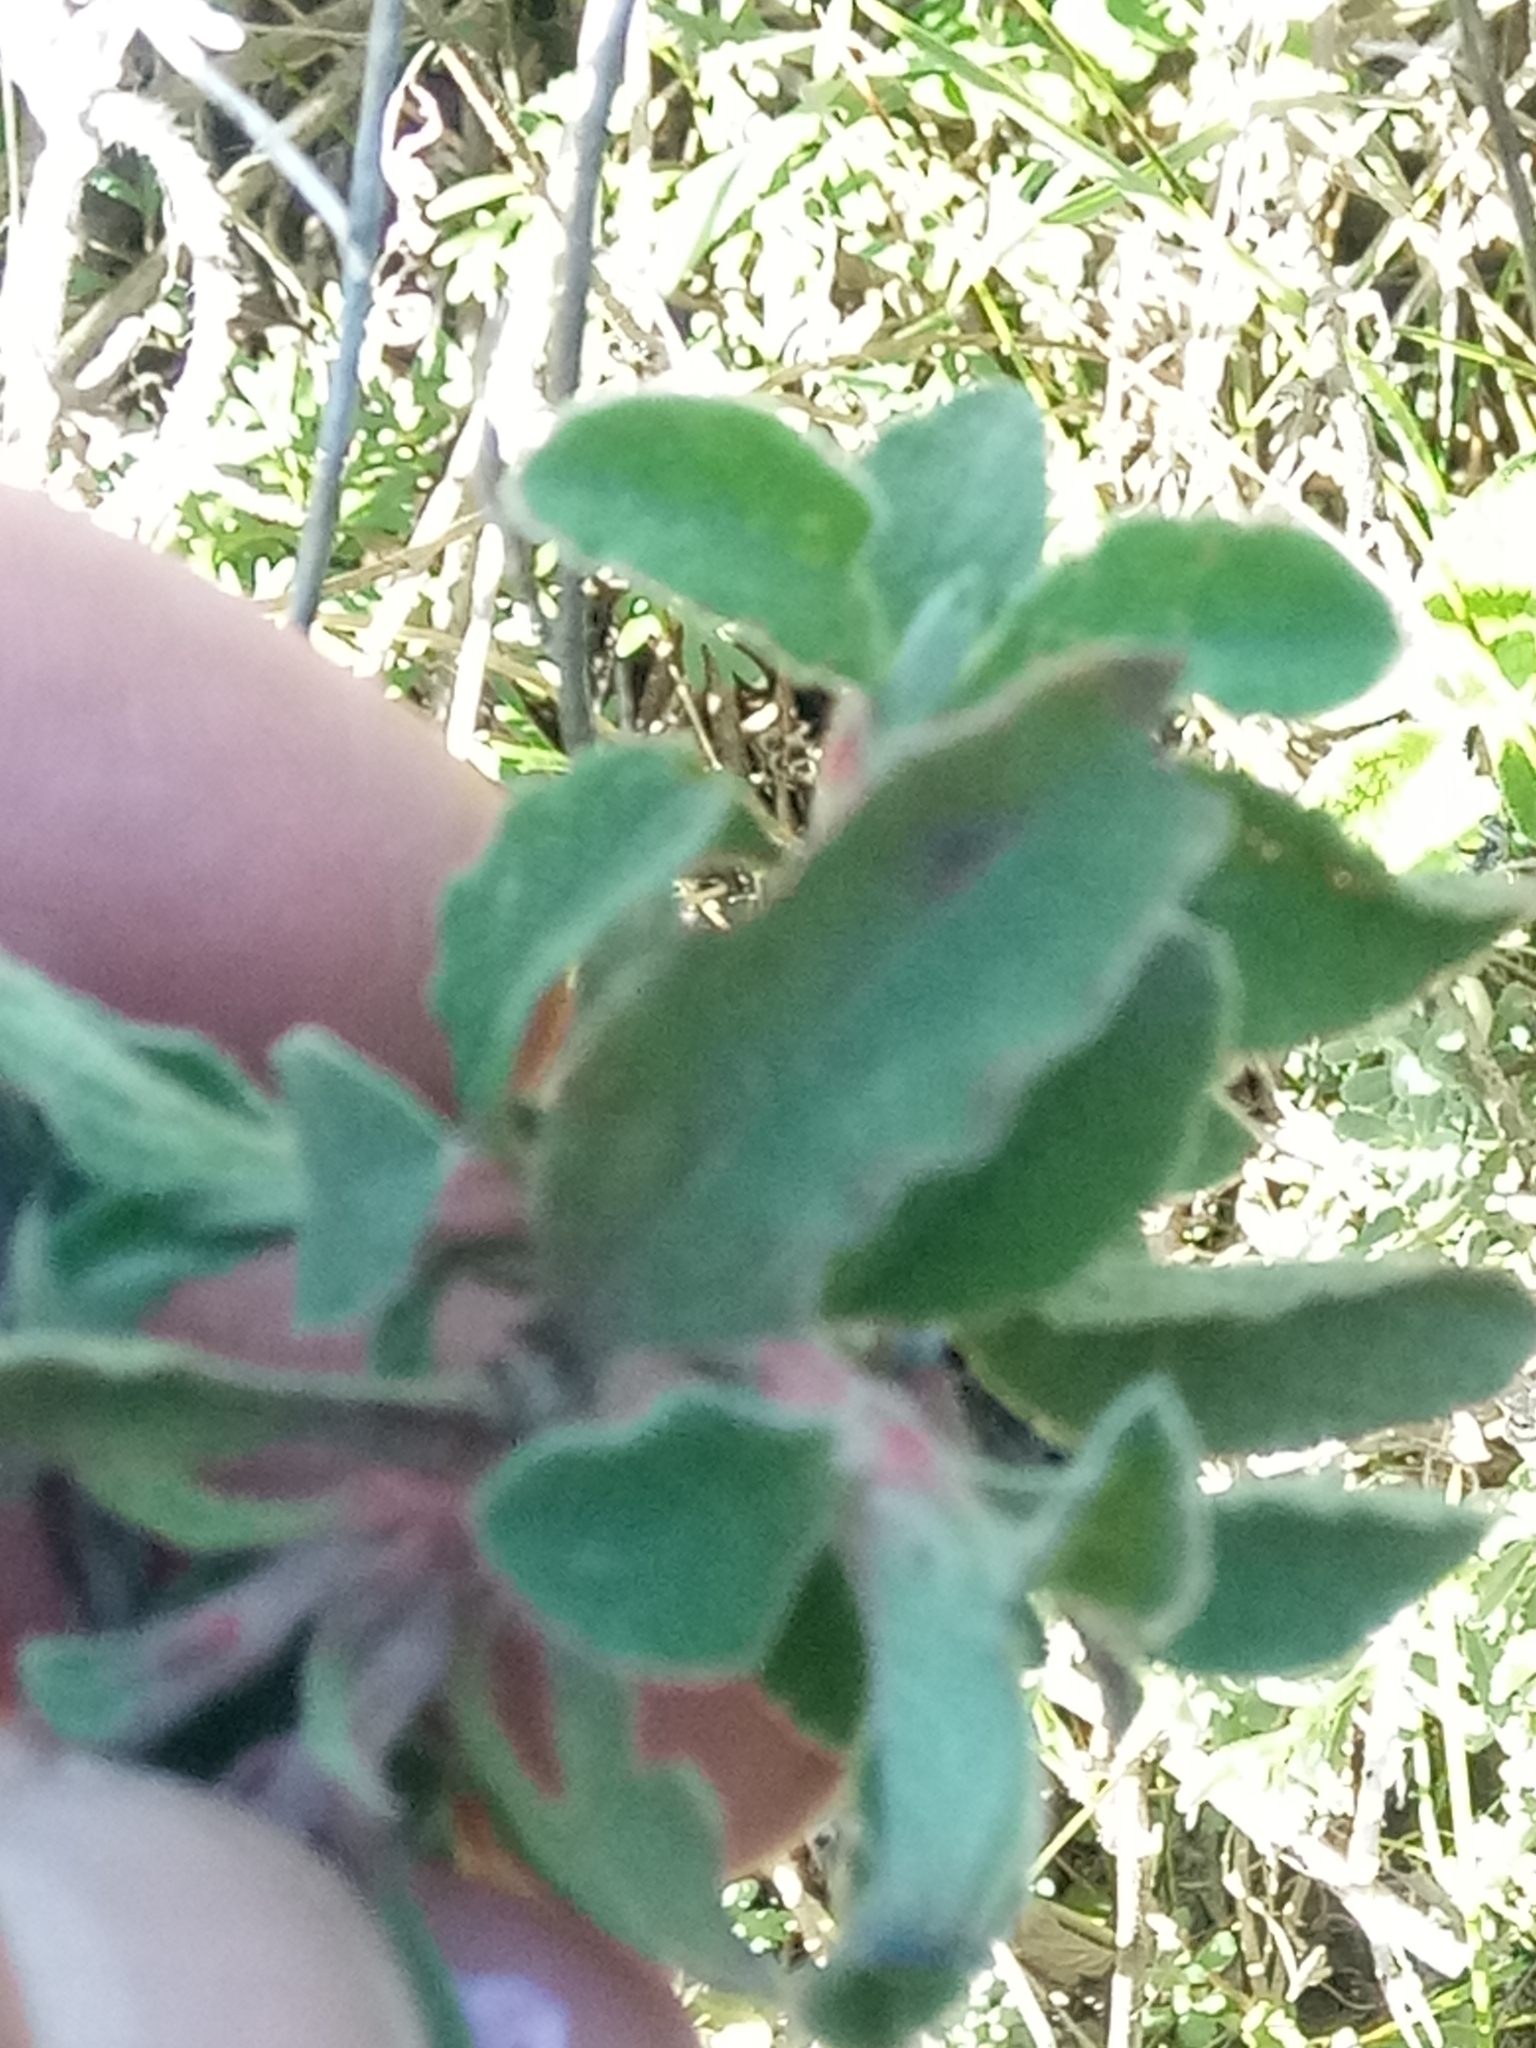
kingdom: Plantae
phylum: Tracheophyta
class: Magnoliopsida
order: Malvales
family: Cistaceae
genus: Cistus
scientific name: Cistus creticus
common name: Cretan rockrose
